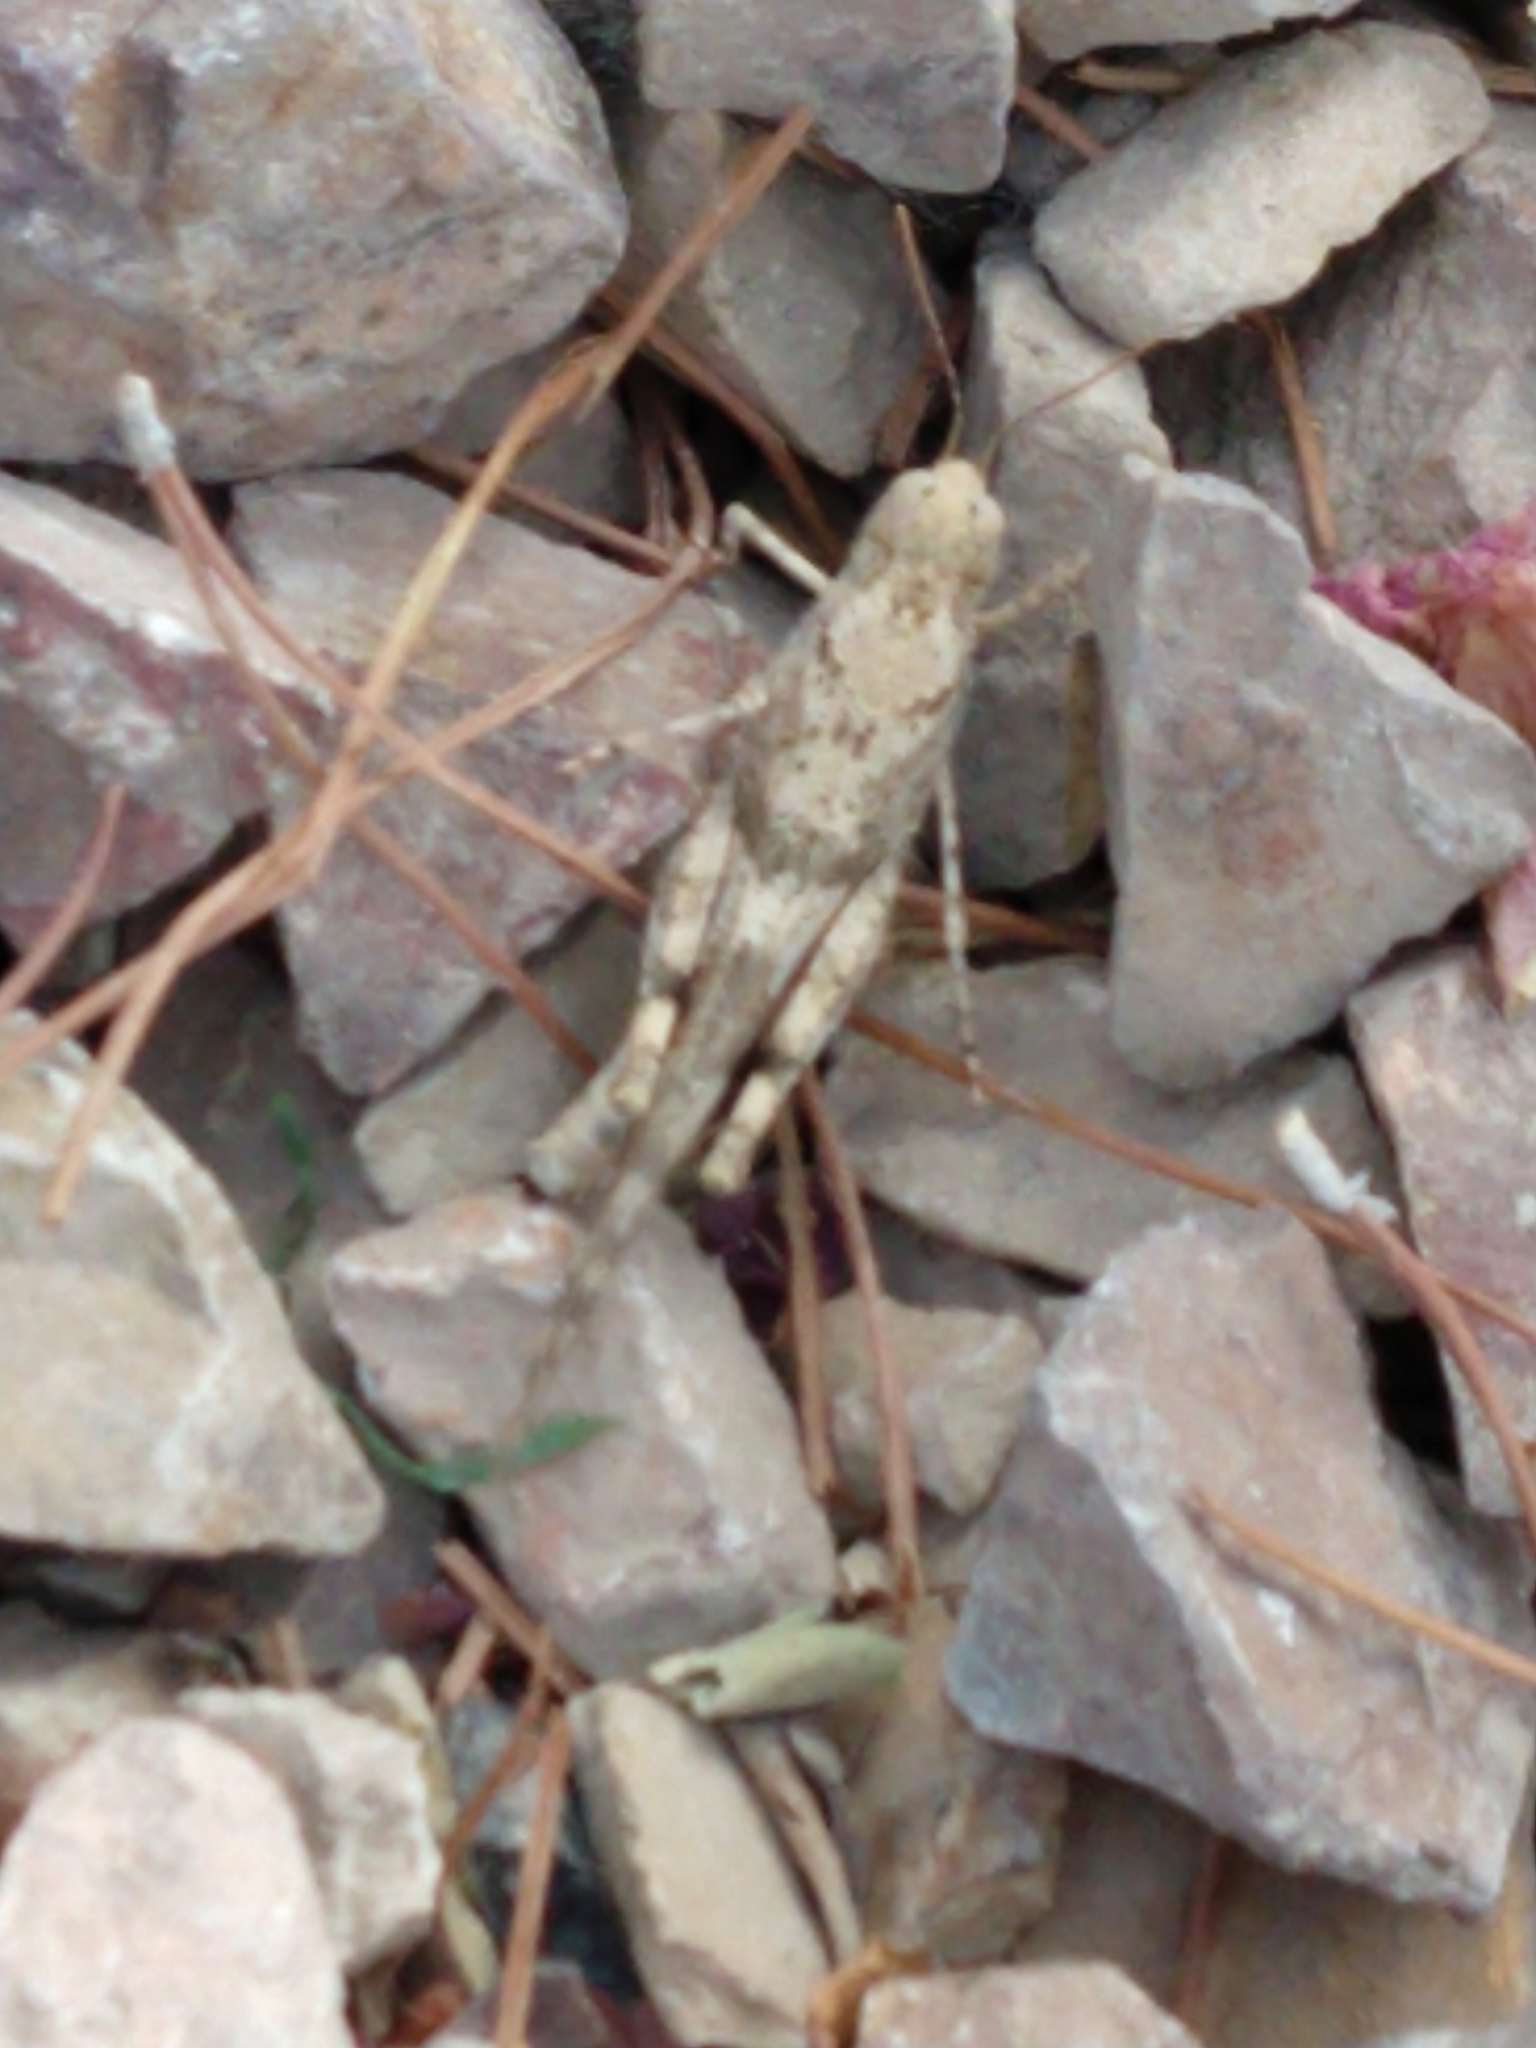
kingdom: Animalia
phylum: Arthropoda
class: Insecta
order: Orthoptera
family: Acrididae
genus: Trimerotropis
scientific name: Trimerotropis pallidipennis
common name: Pallid-winged grasshopper
